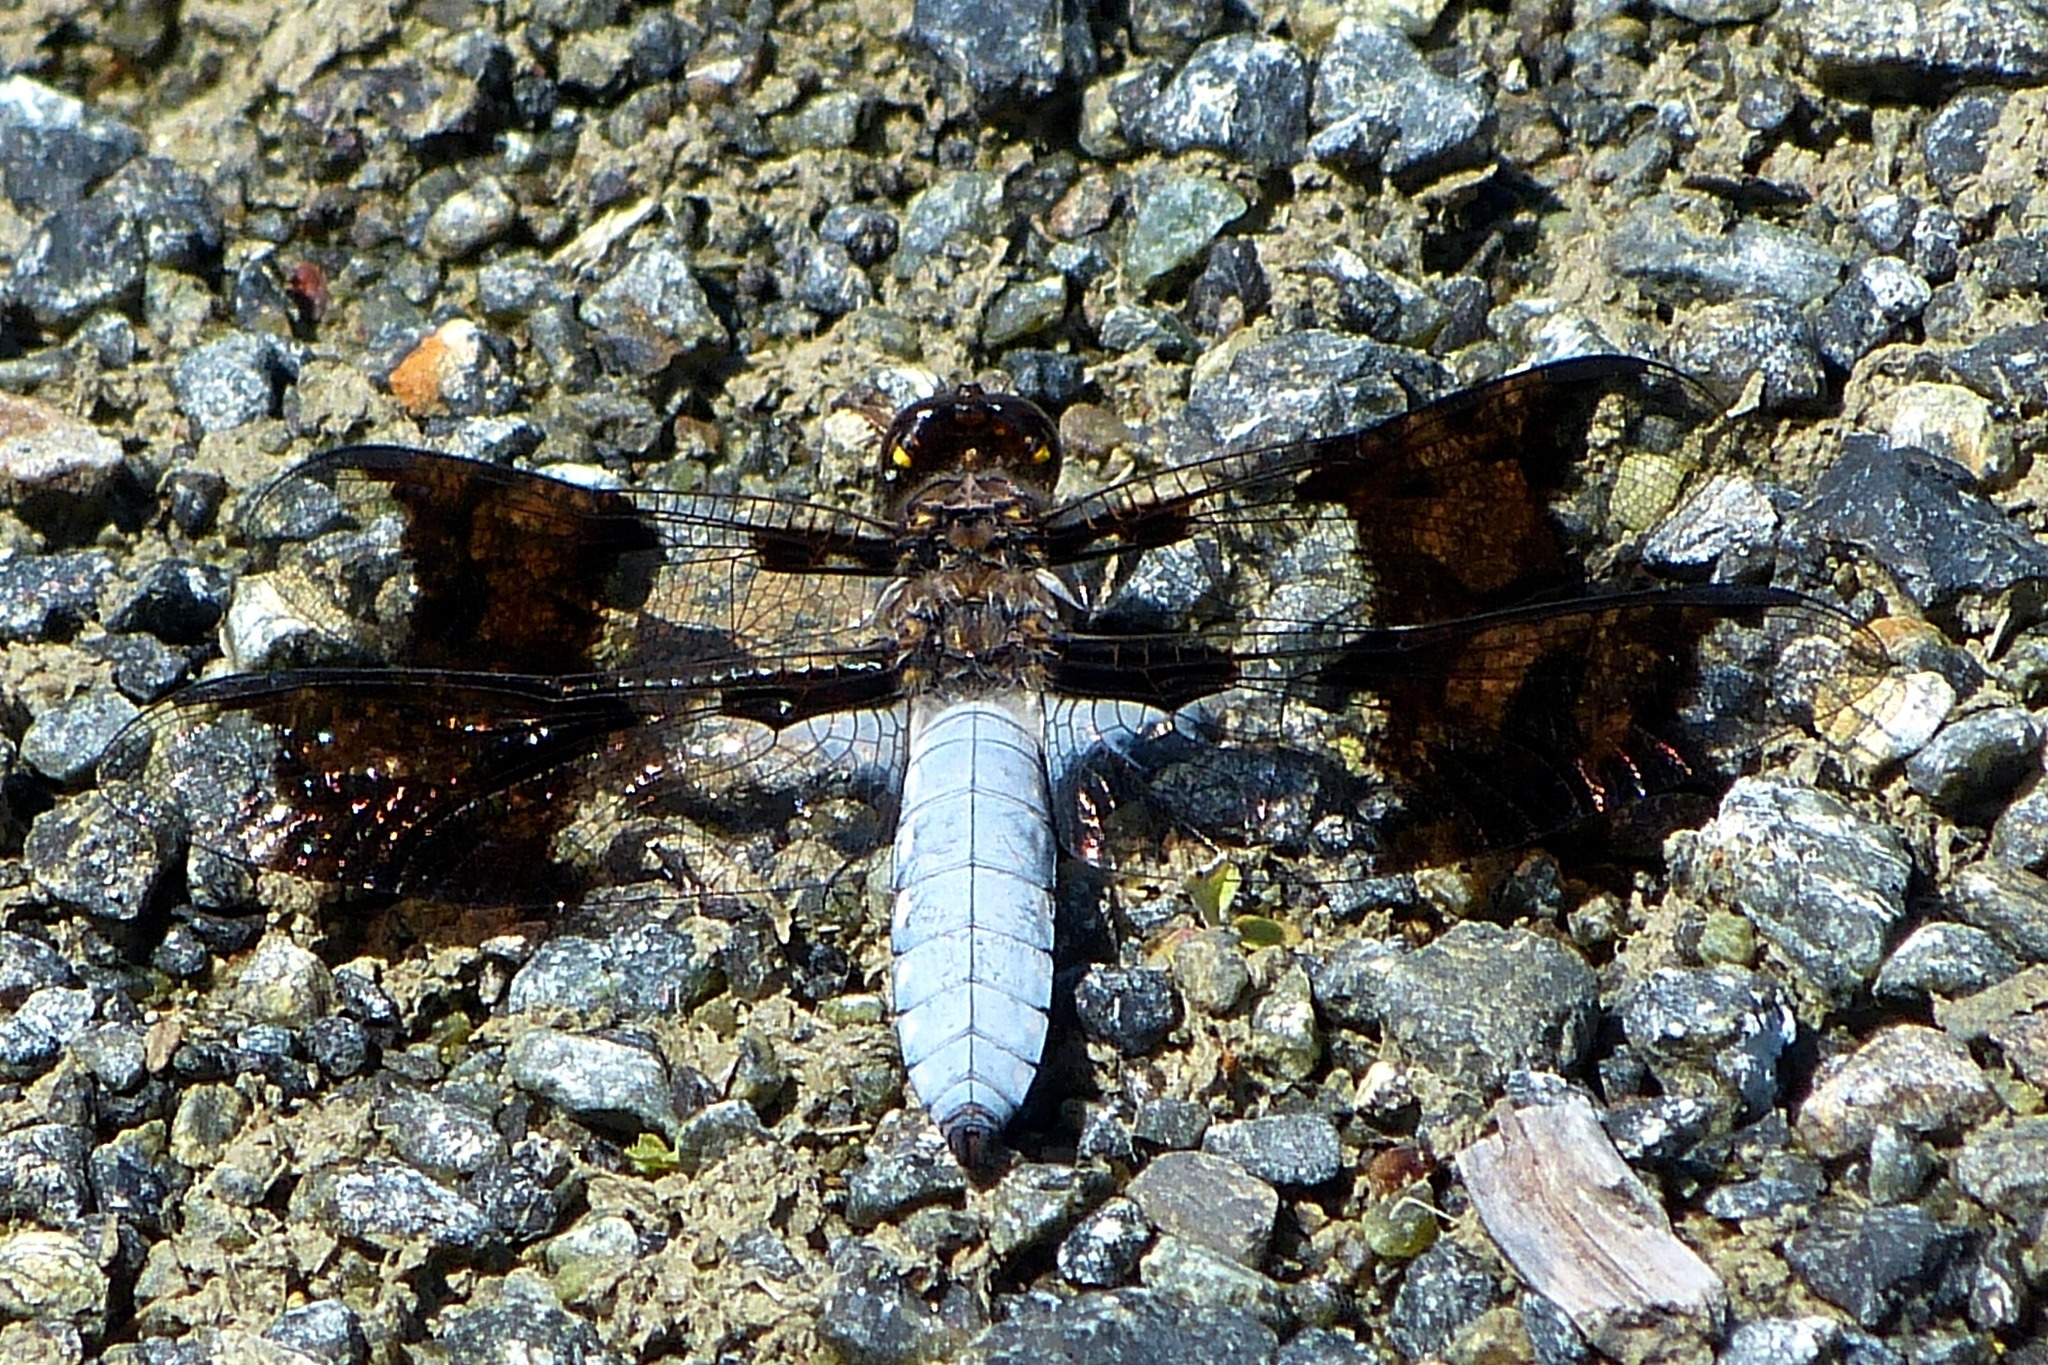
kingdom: Animalia
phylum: Arthropoda
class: Insecta
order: Odonata
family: Libellulidae
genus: Plathemis
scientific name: Plathemis lydia
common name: Common whitetail
